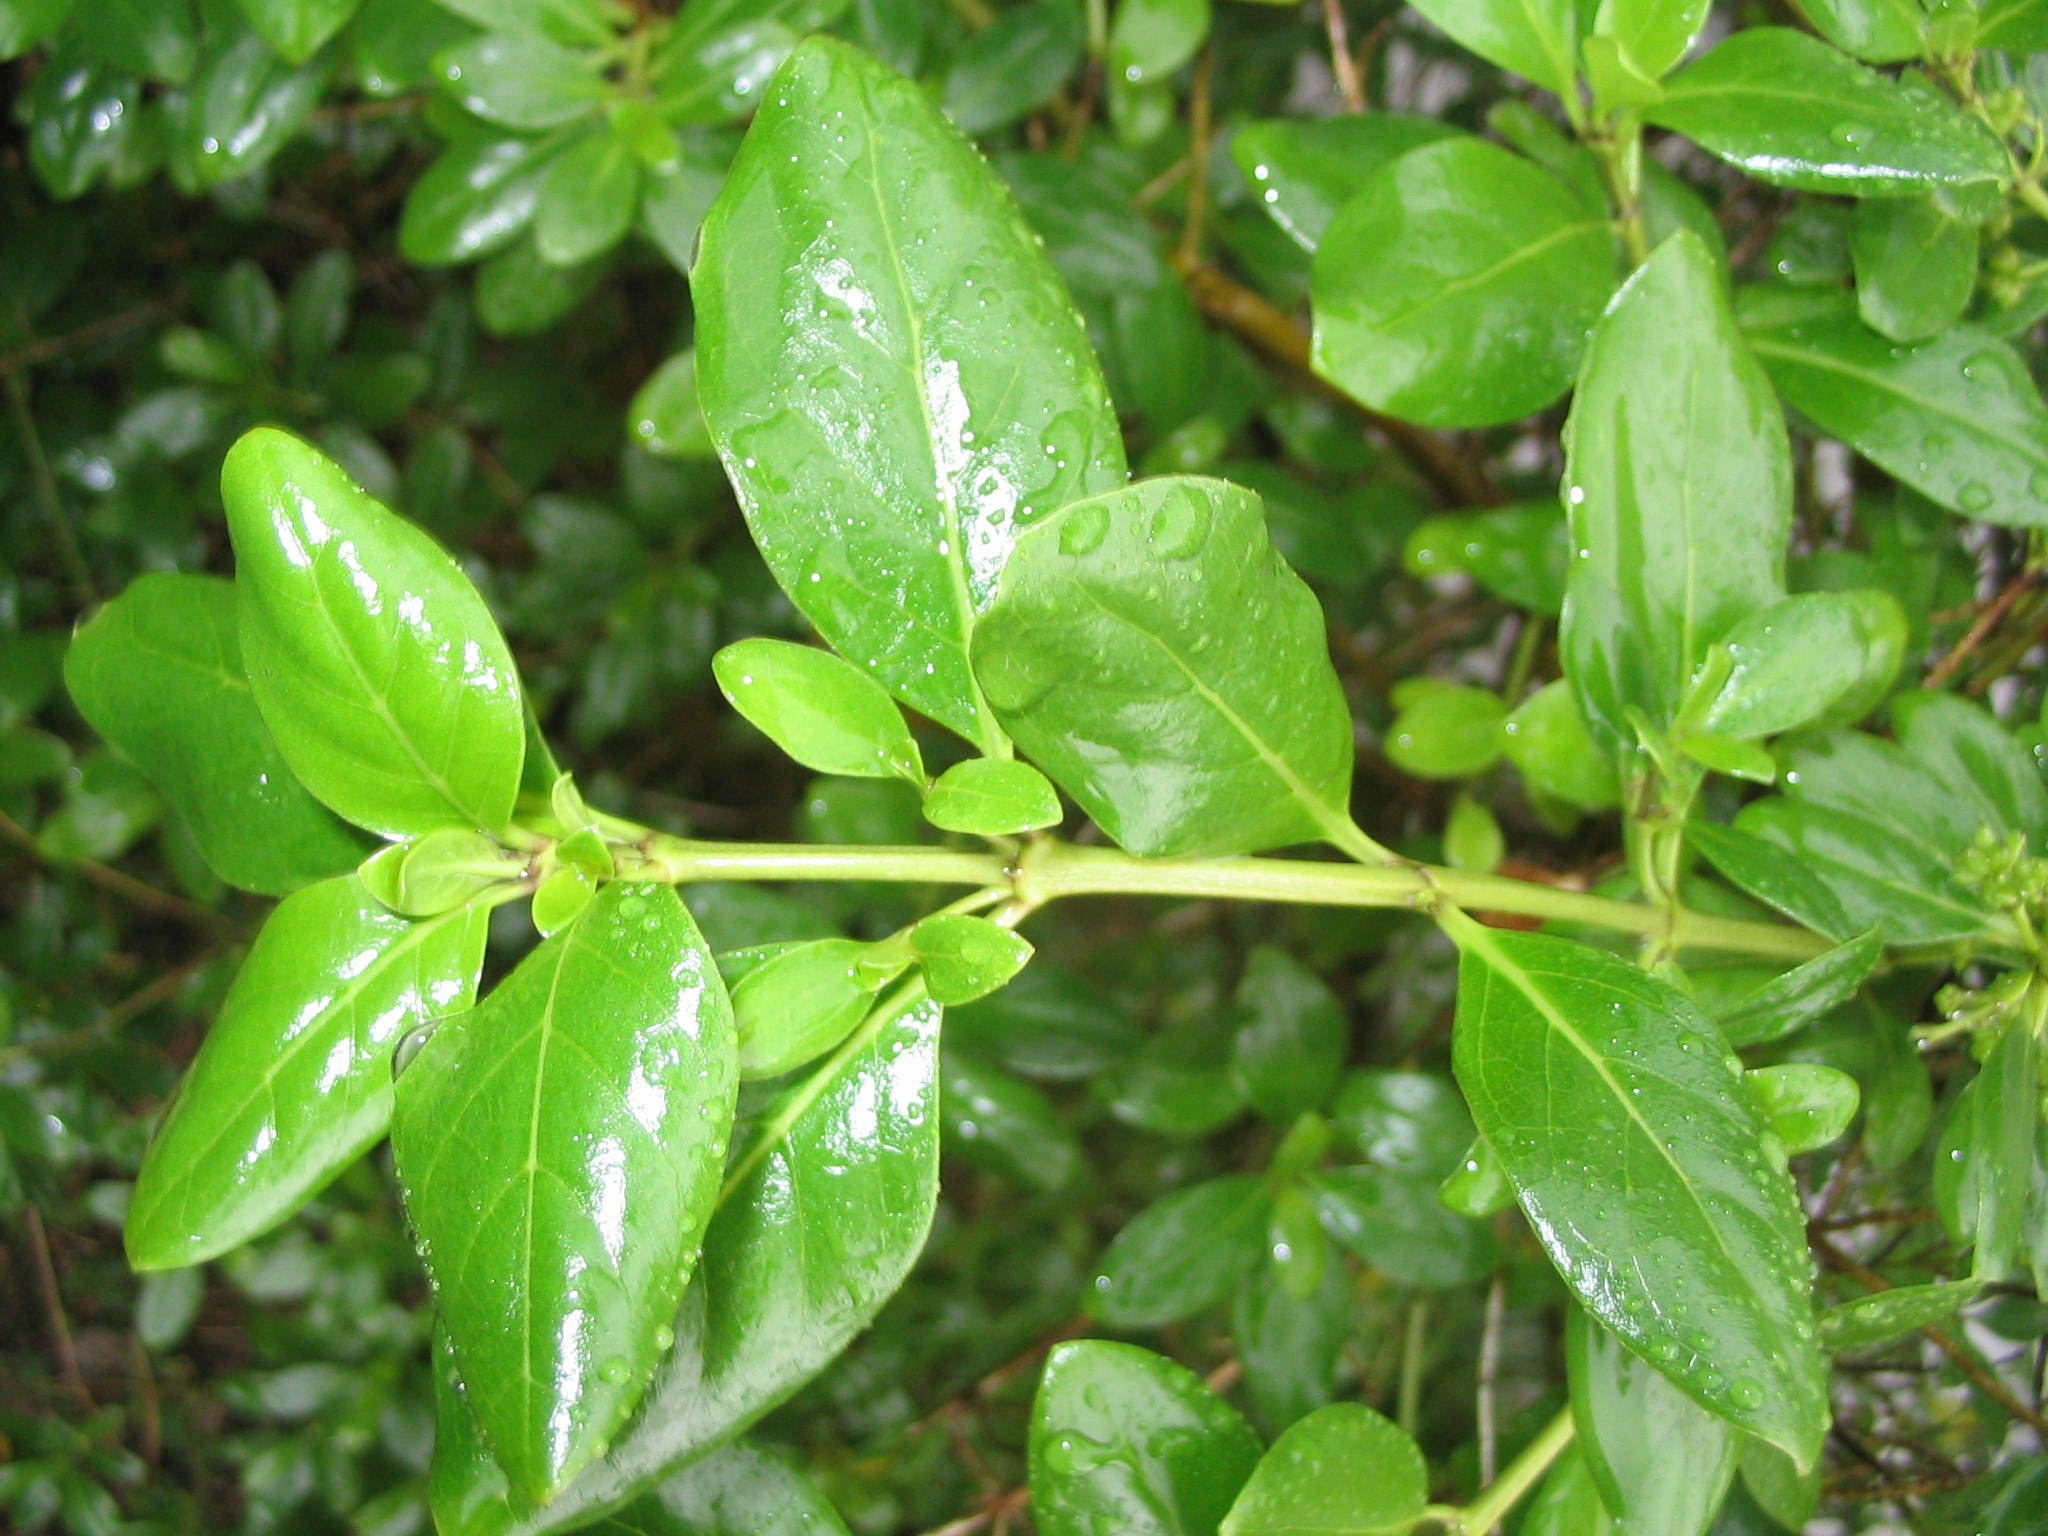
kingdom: Plantae
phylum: Tracheophyta
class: Magnoliopsida
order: Gentianales
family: Rubiaceae
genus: Coprosma
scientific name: Coprosma petiolata
